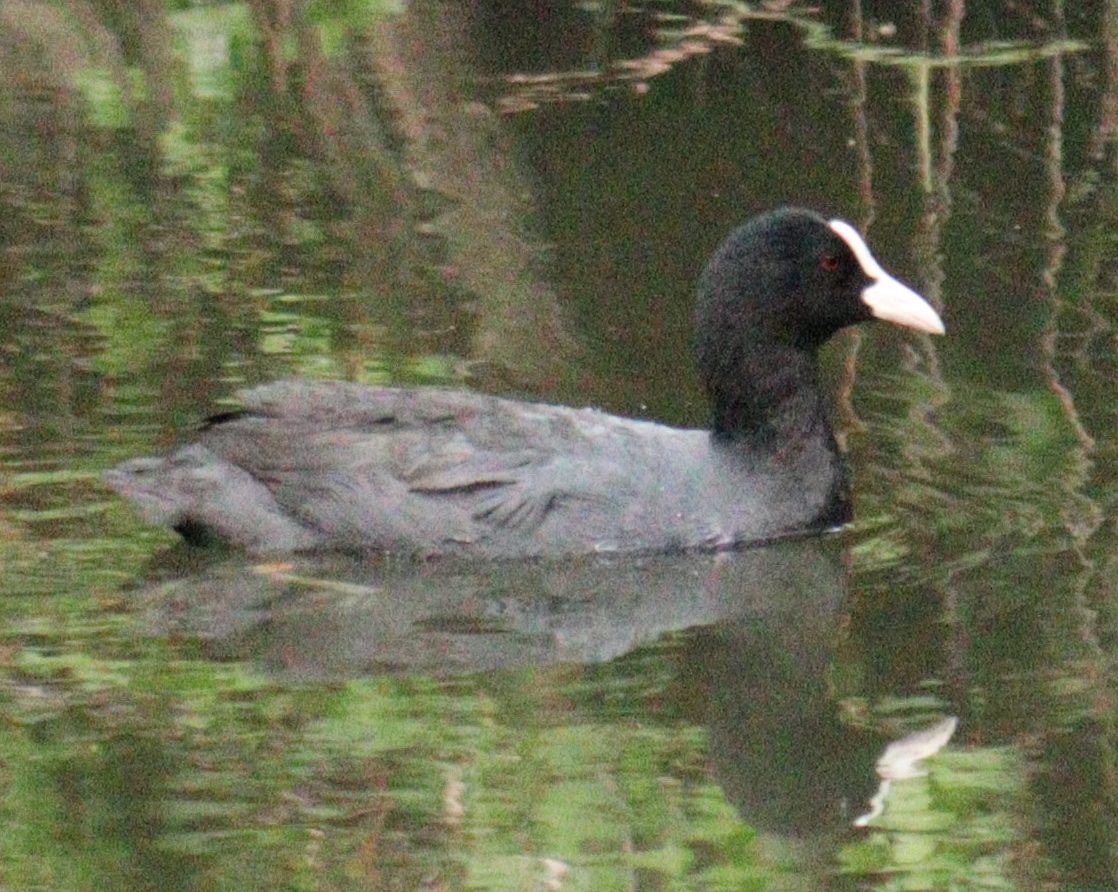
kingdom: Animalia
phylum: Chordata
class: Aves
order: Gruiformes
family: Rallidae
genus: Fulica
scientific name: Fulica atra
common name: Eurasian coot
